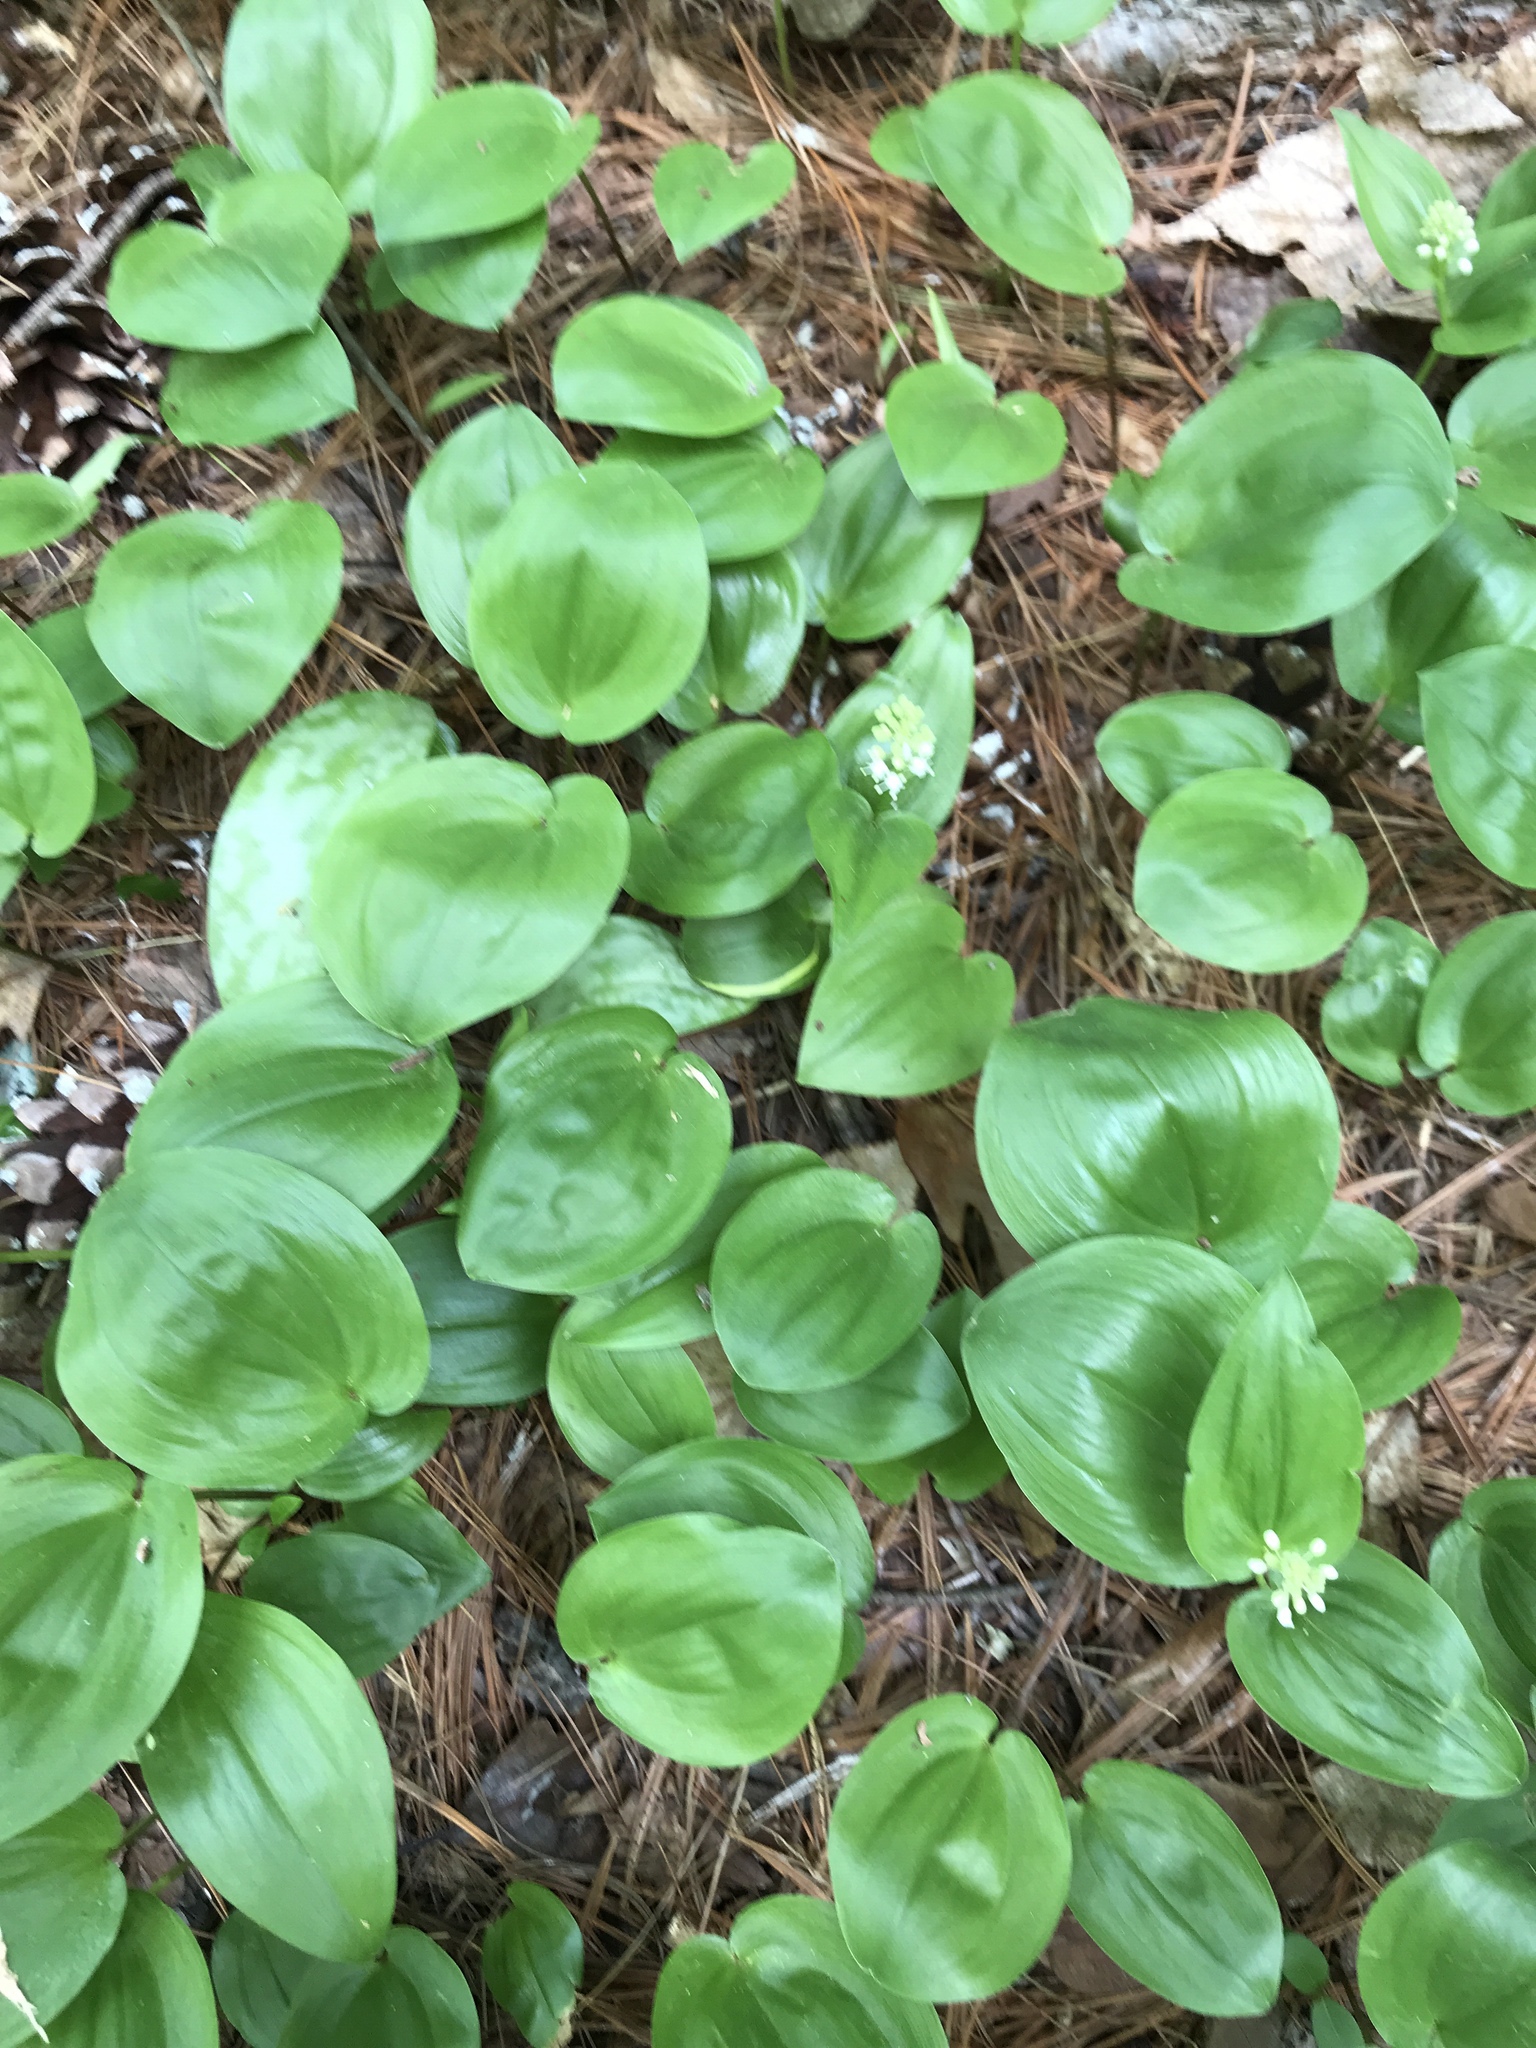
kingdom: Plantae
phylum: Tracheophyta
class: Liliopsida
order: Asparagales
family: Asparagaceae
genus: Maianthemum
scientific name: Maianthemum canadense
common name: False lily-of-the-valley
